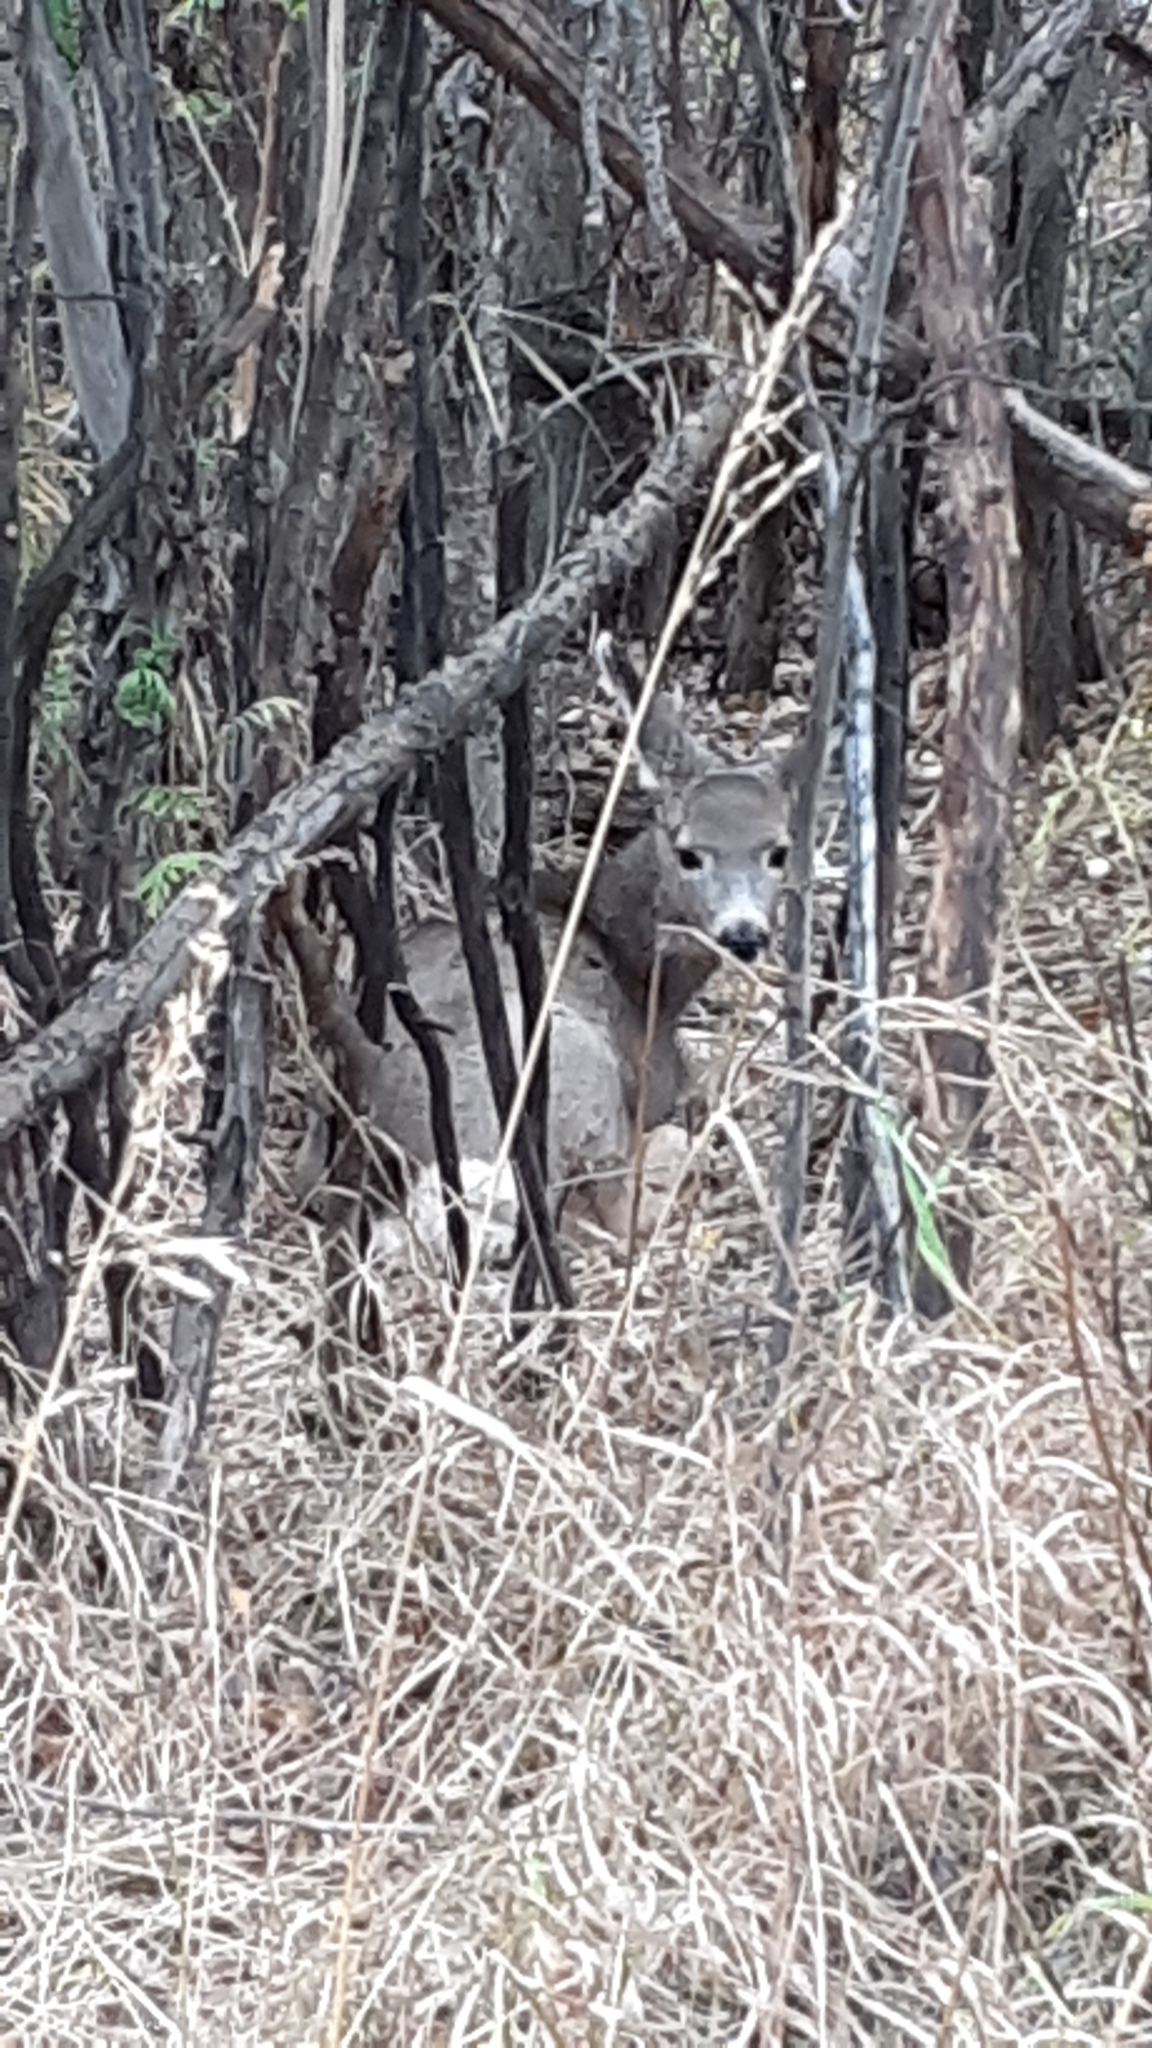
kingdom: Animalia
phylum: Chordata
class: Mammalia
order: Artiodactyla
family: Cervidae
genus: Odocoileus
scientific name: Odocoileus hemionus
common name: Mule deer
